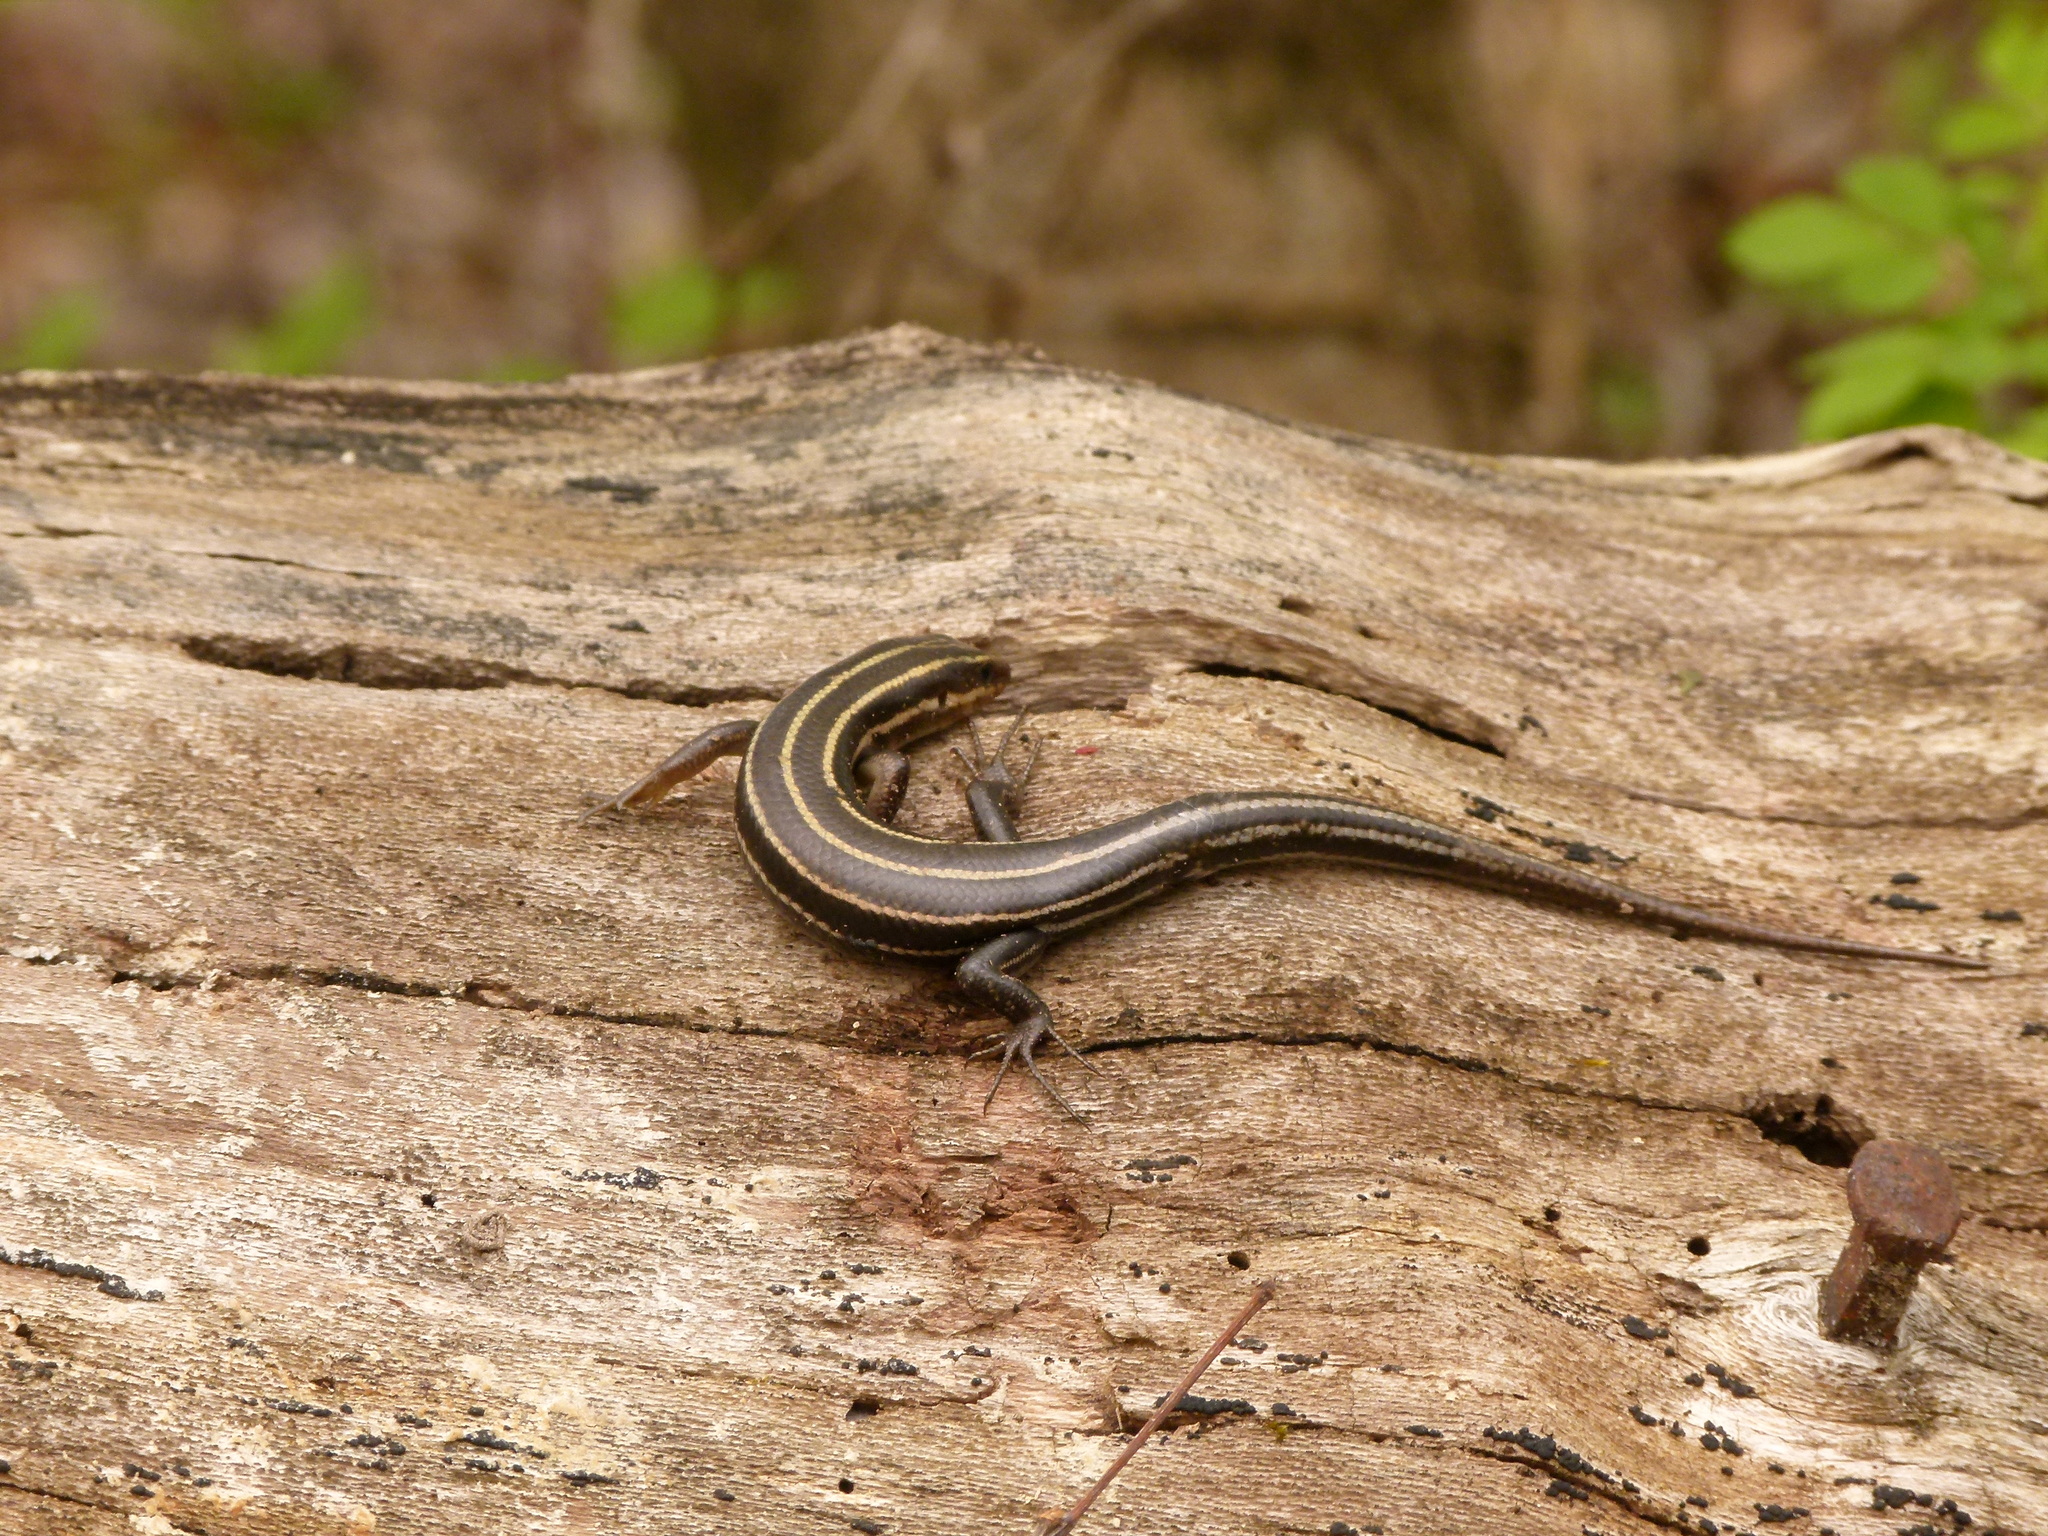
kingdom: Animalia
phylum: Chordata
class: Squamata
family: Scincidae
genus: Plestiodon
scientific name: Plestiodon fasciatus
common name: Five-lined skink
